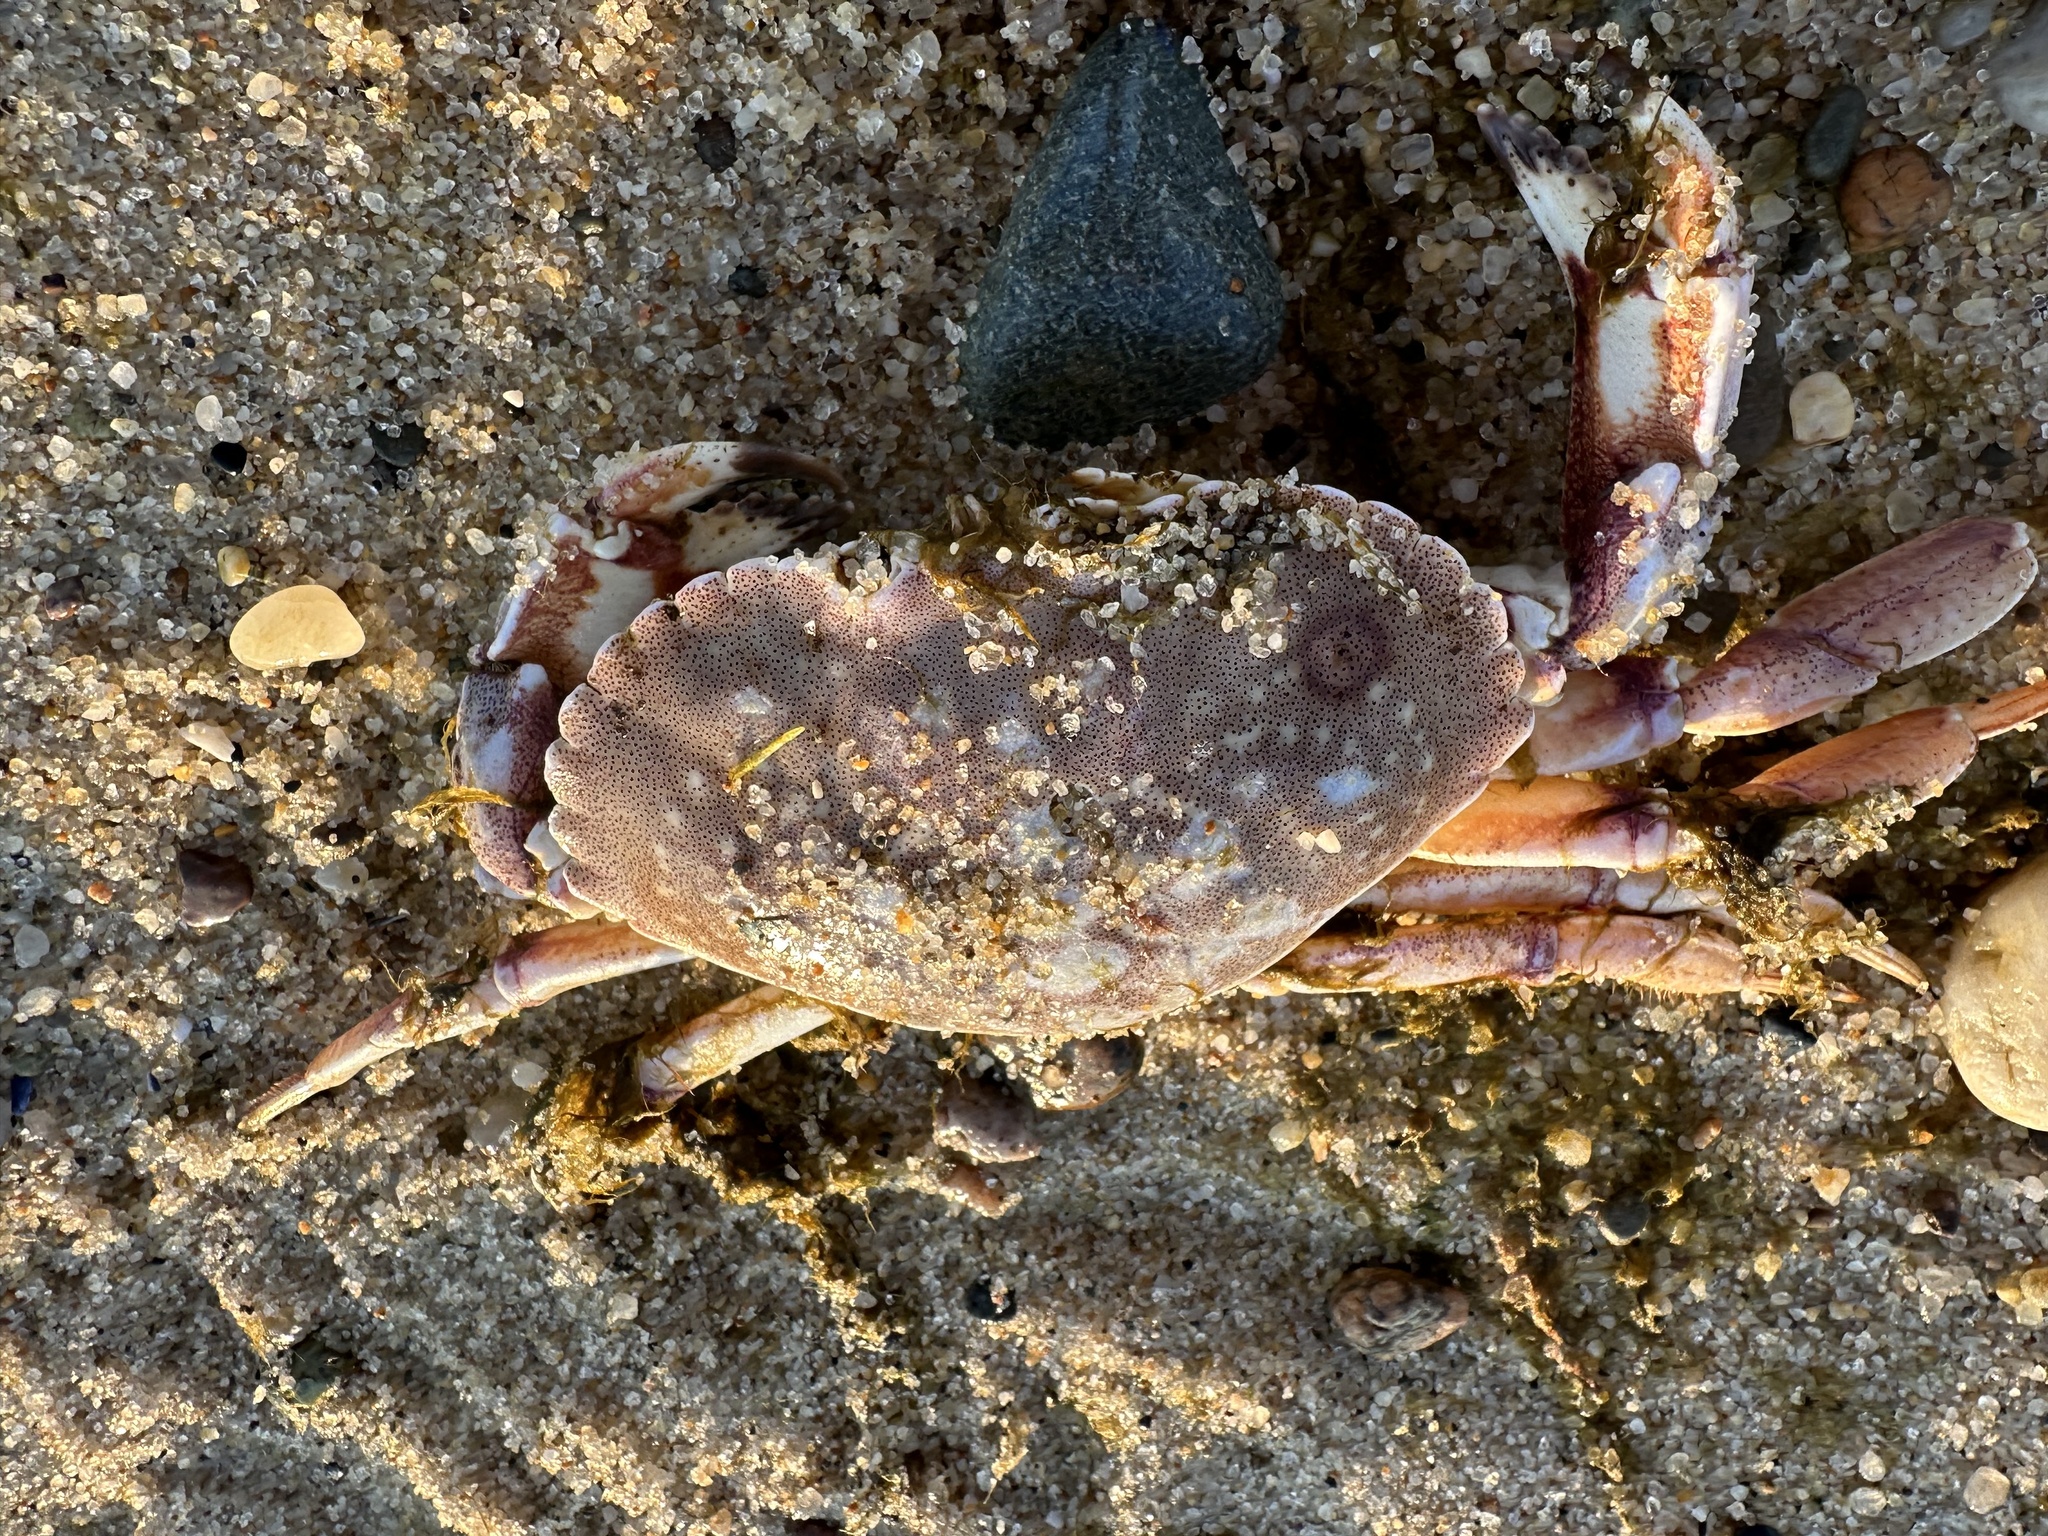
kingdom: Animalia
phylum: Arthropoda
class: Malacostraca
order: Decapoda
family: Cancridae
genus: Cancer
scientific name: Cancer irroratus
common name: Atlantic rock crab
